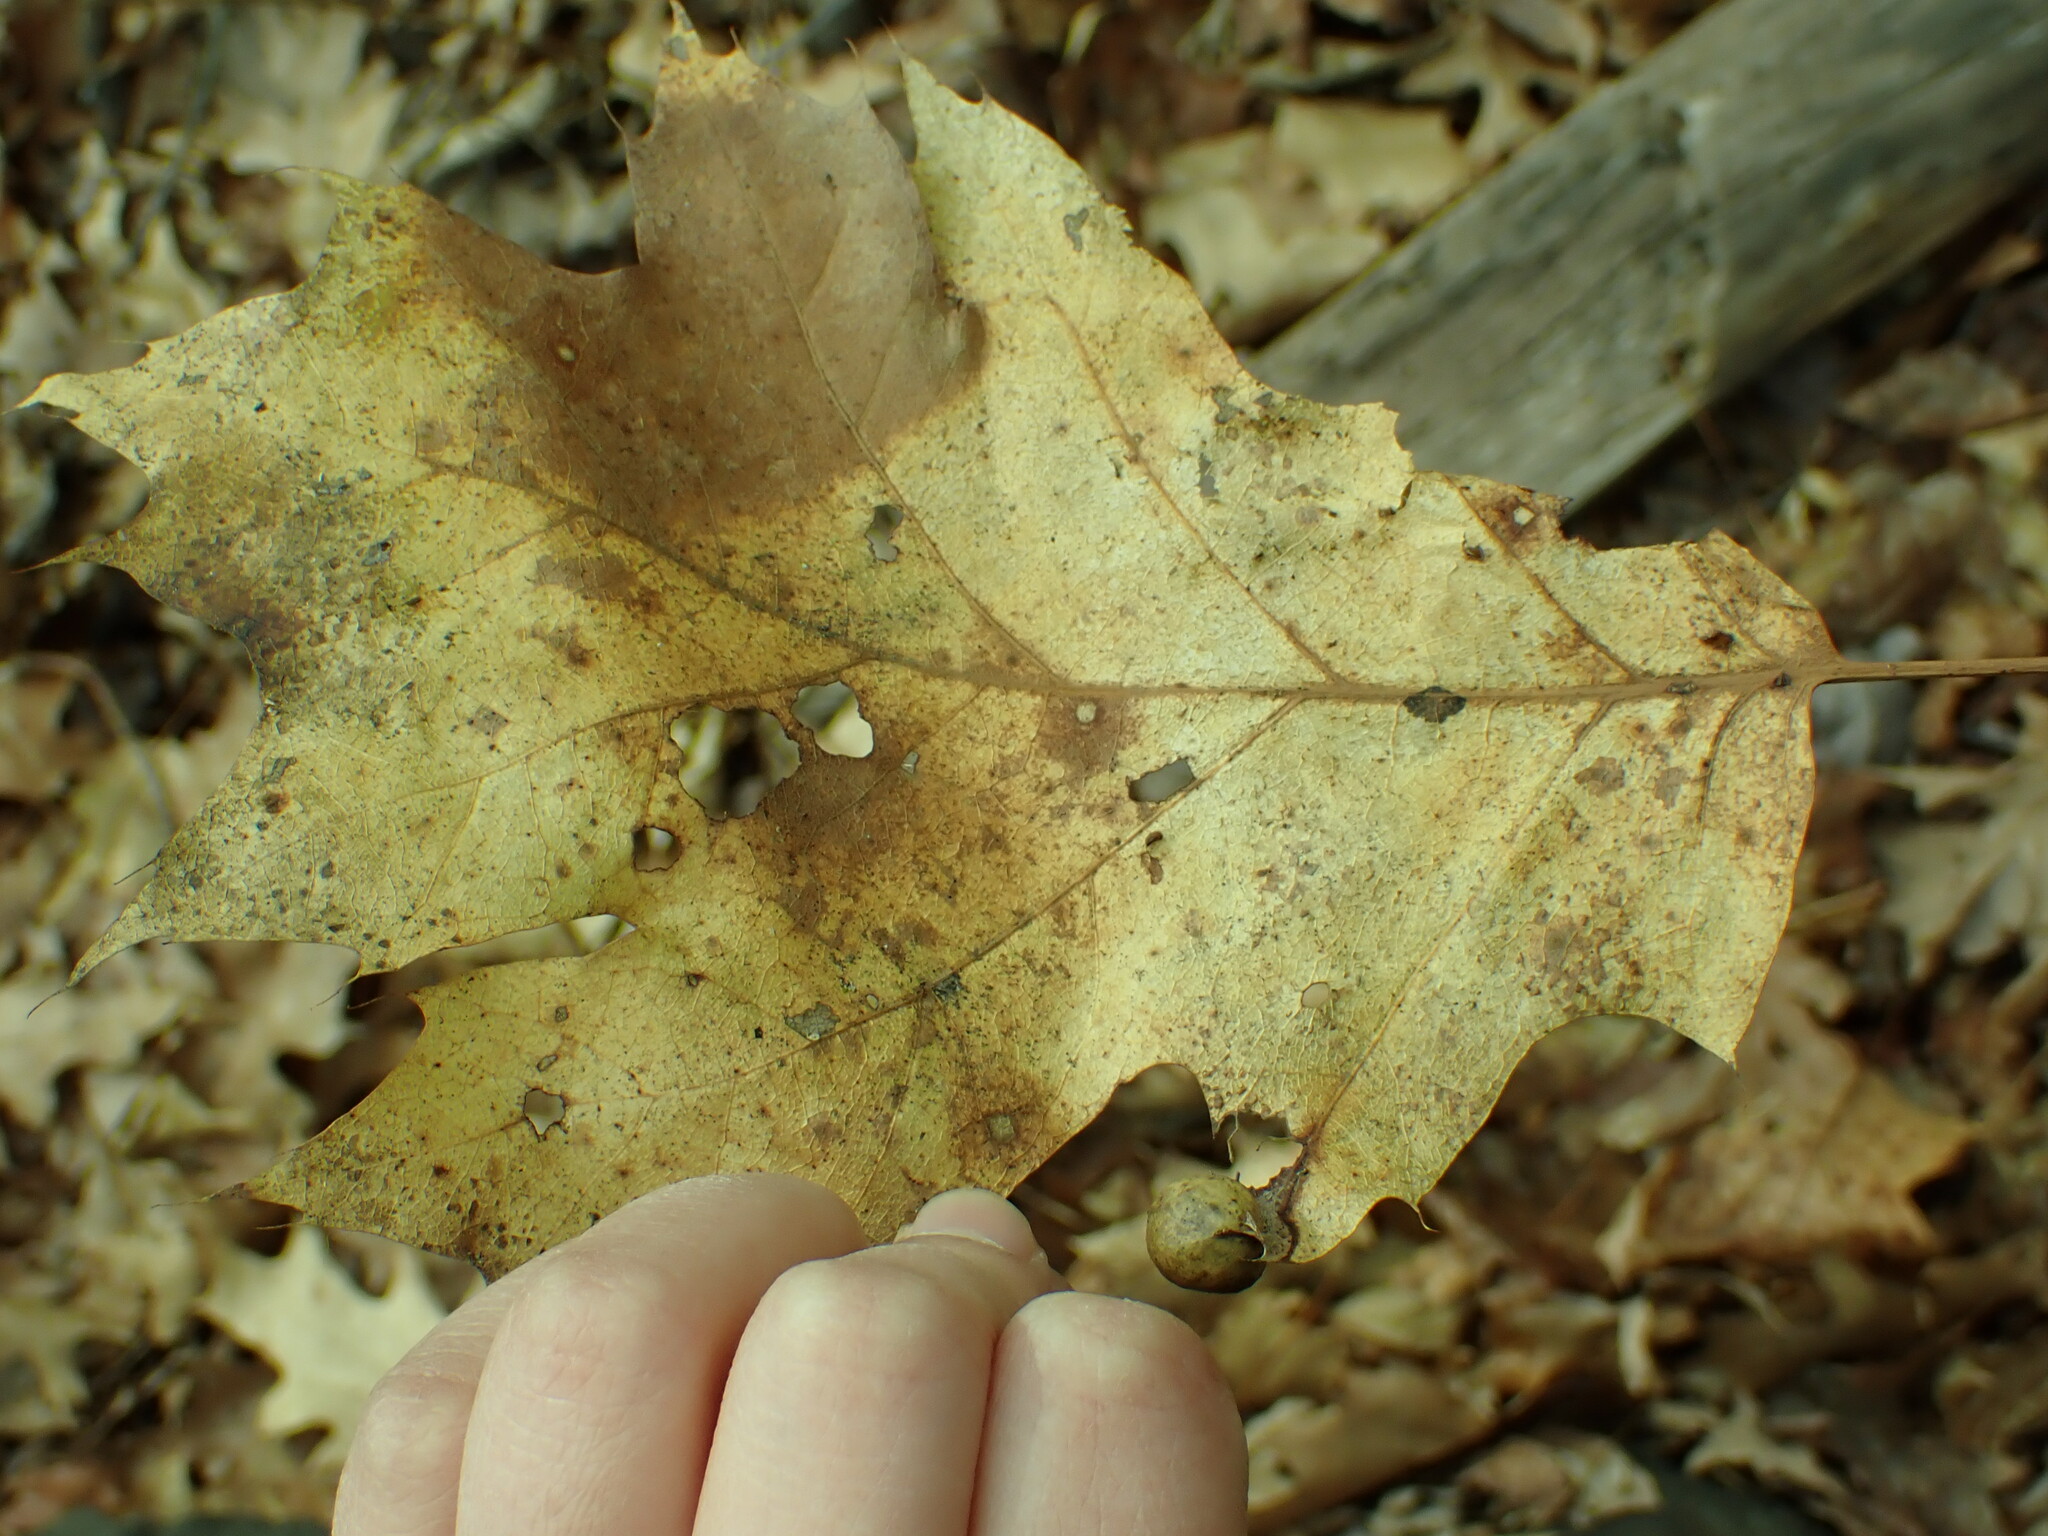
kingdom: Animalia
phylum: Arthropoda
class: Insecta
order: Hymenoptera
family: Cynipidae
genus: Amphibolips
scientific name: Amphibolips
